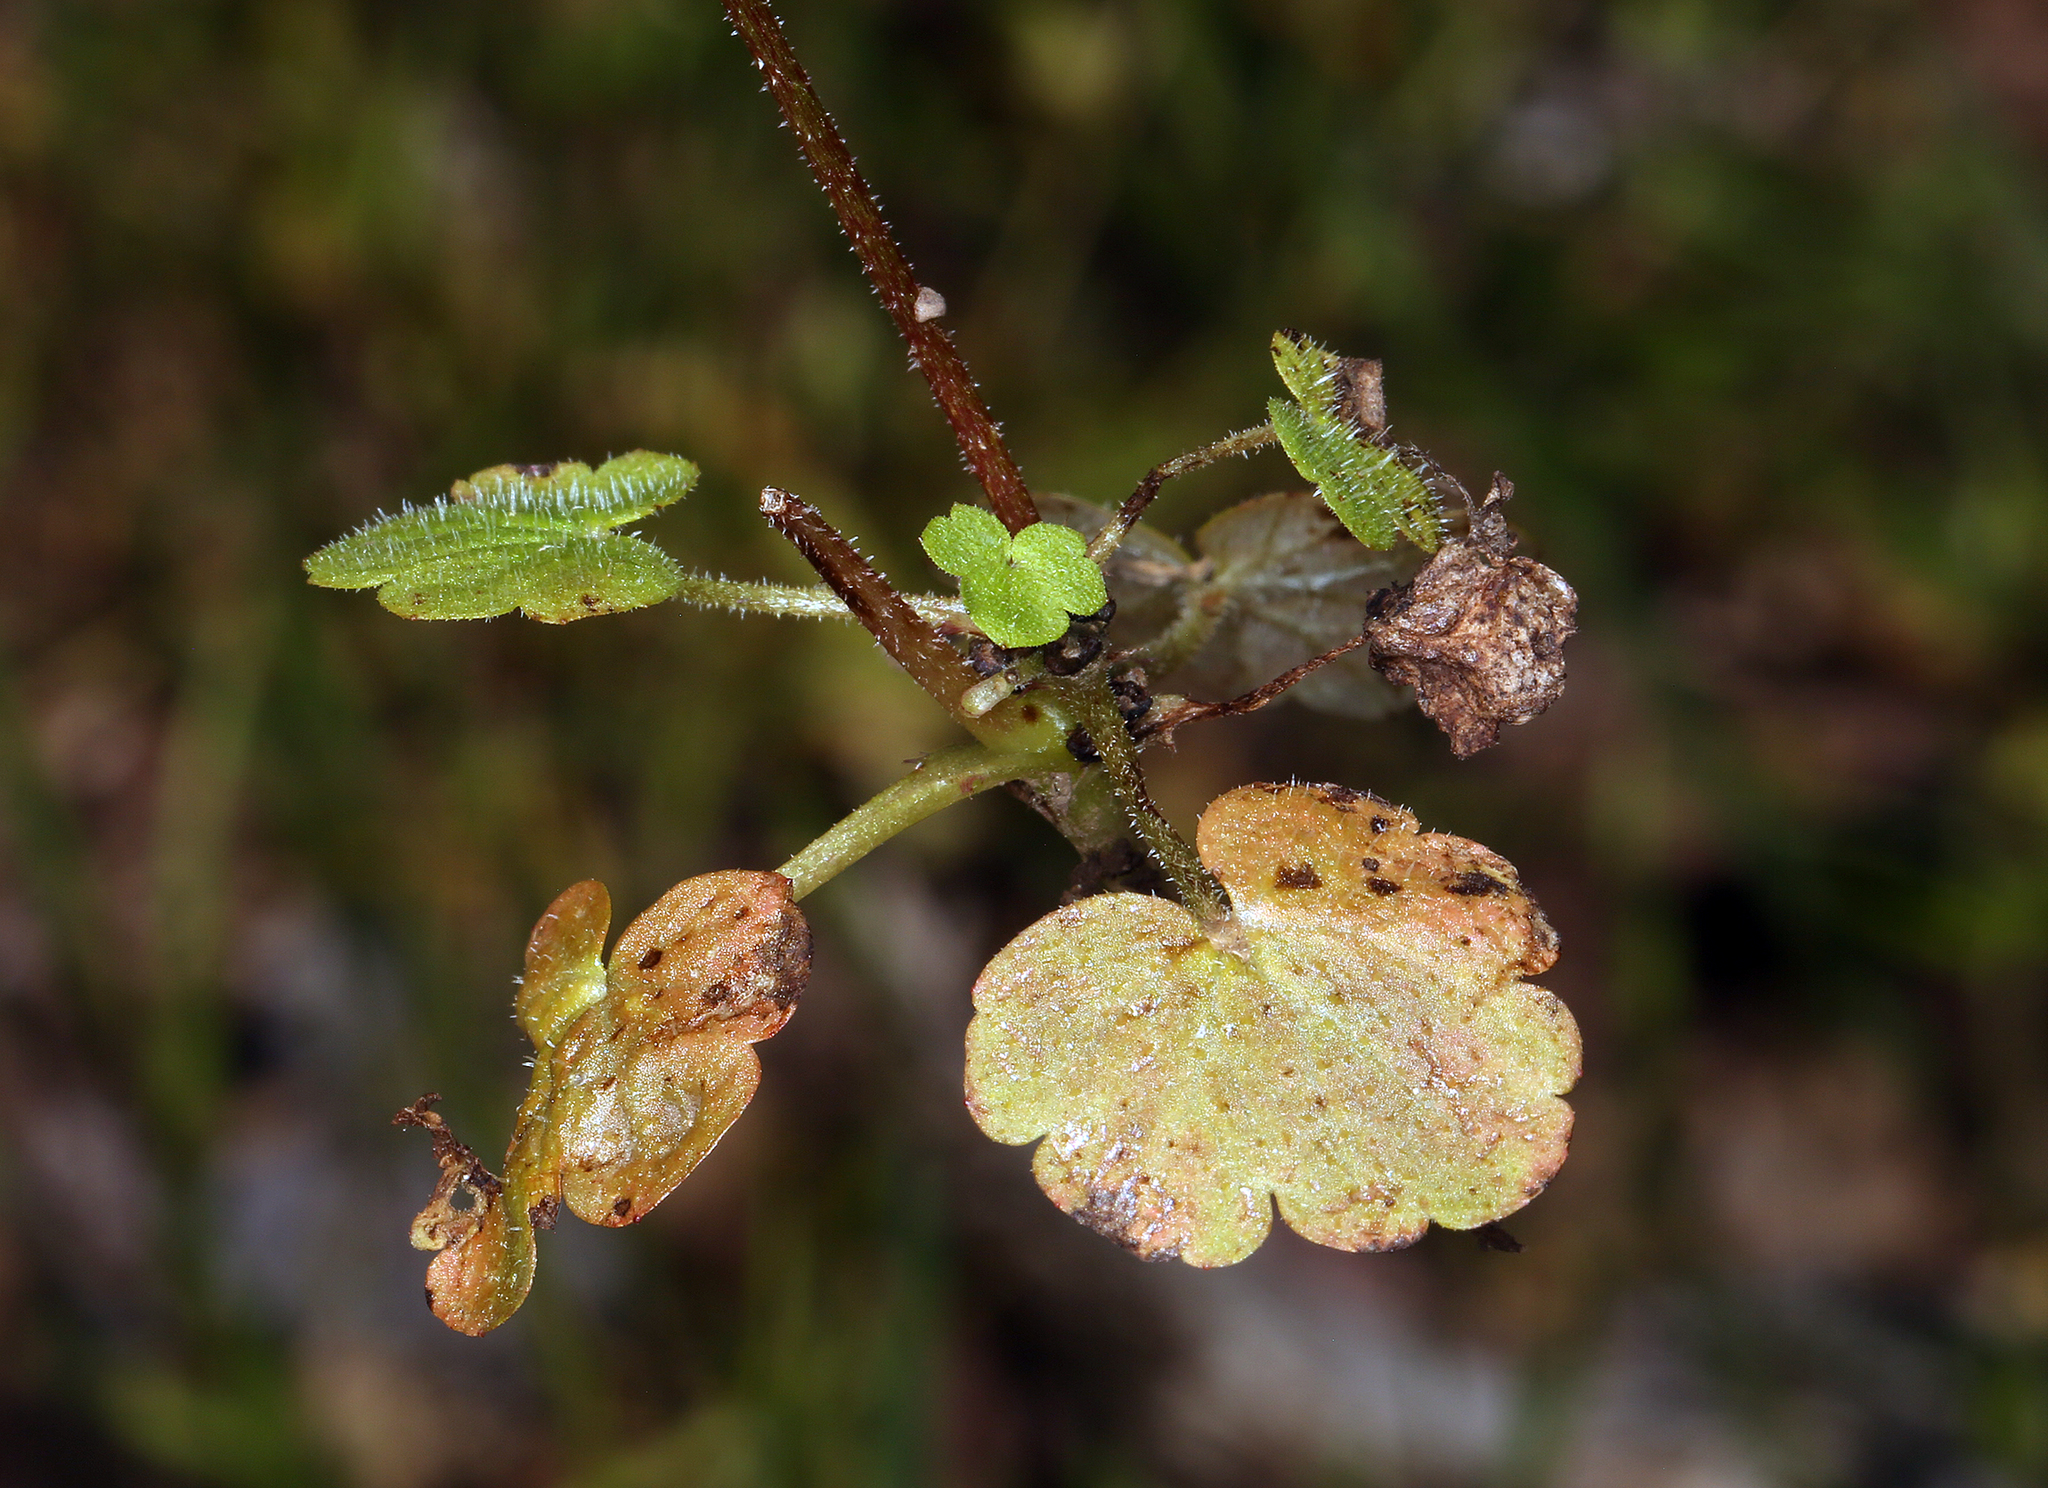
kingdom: Plantae
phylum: Tracheophyta
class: Magnoliopsida
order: Saxifragales
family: Saxifragaceae
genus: Lithophragma
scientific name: Lithophragma heterophyllum
